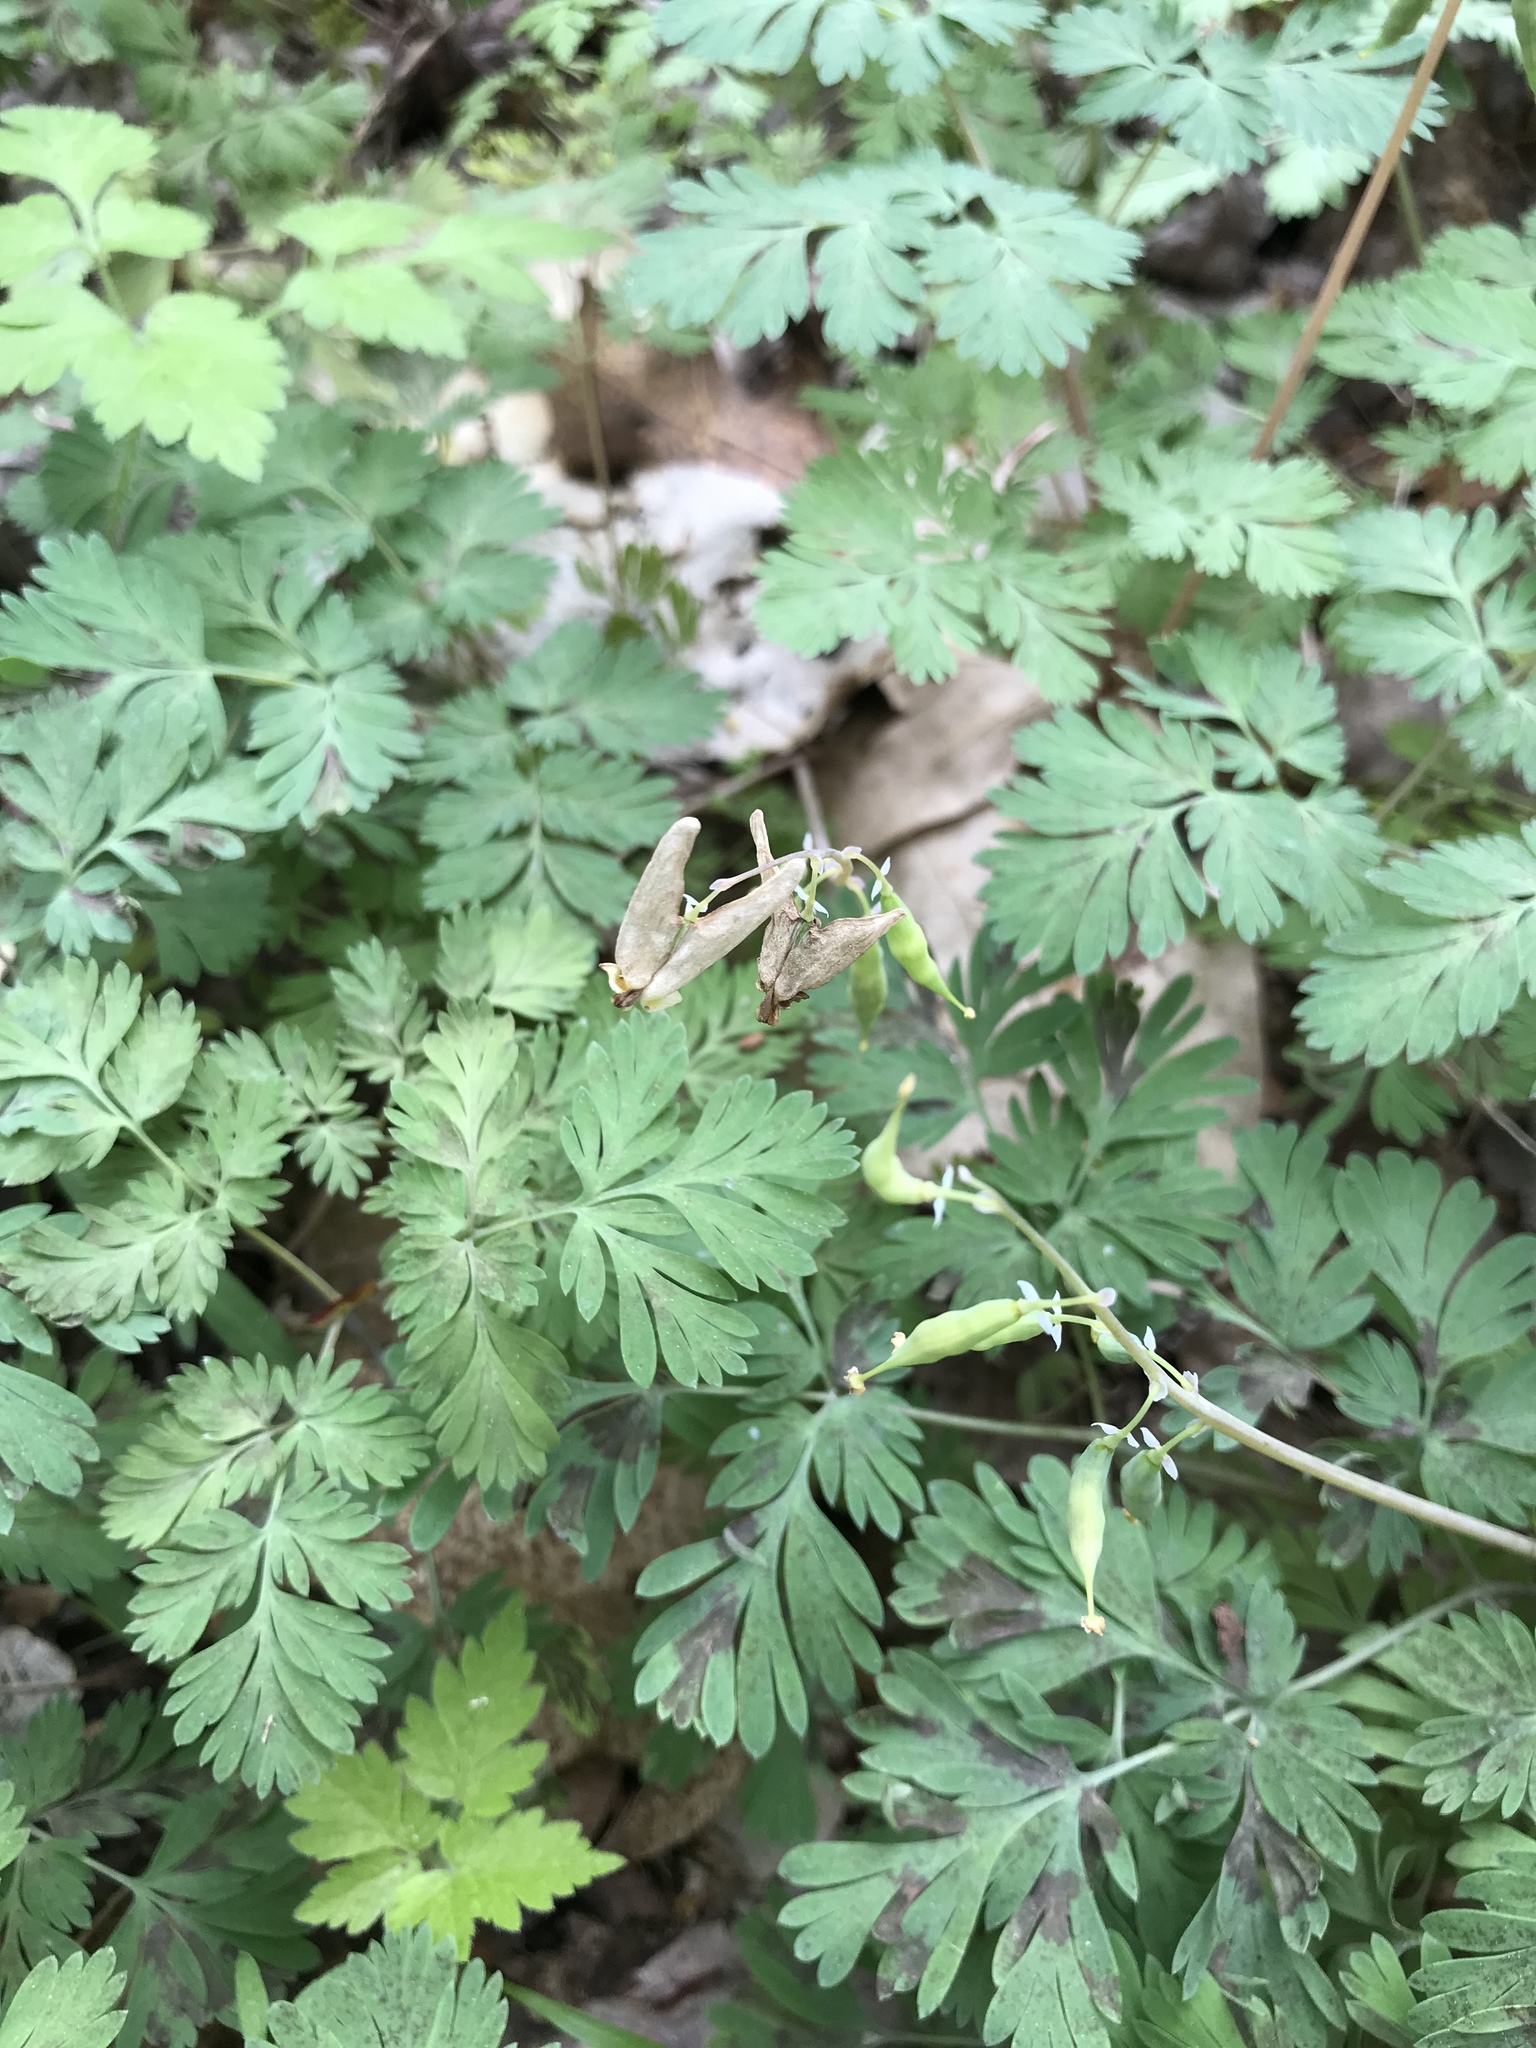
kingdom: Plantae
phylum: Tracheophyta
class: Magnoliopsida
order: Ranunculales
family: Papaveraceae
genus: Dicentra
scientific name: Dicentra cucullaria
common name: Dutchman's breeches
